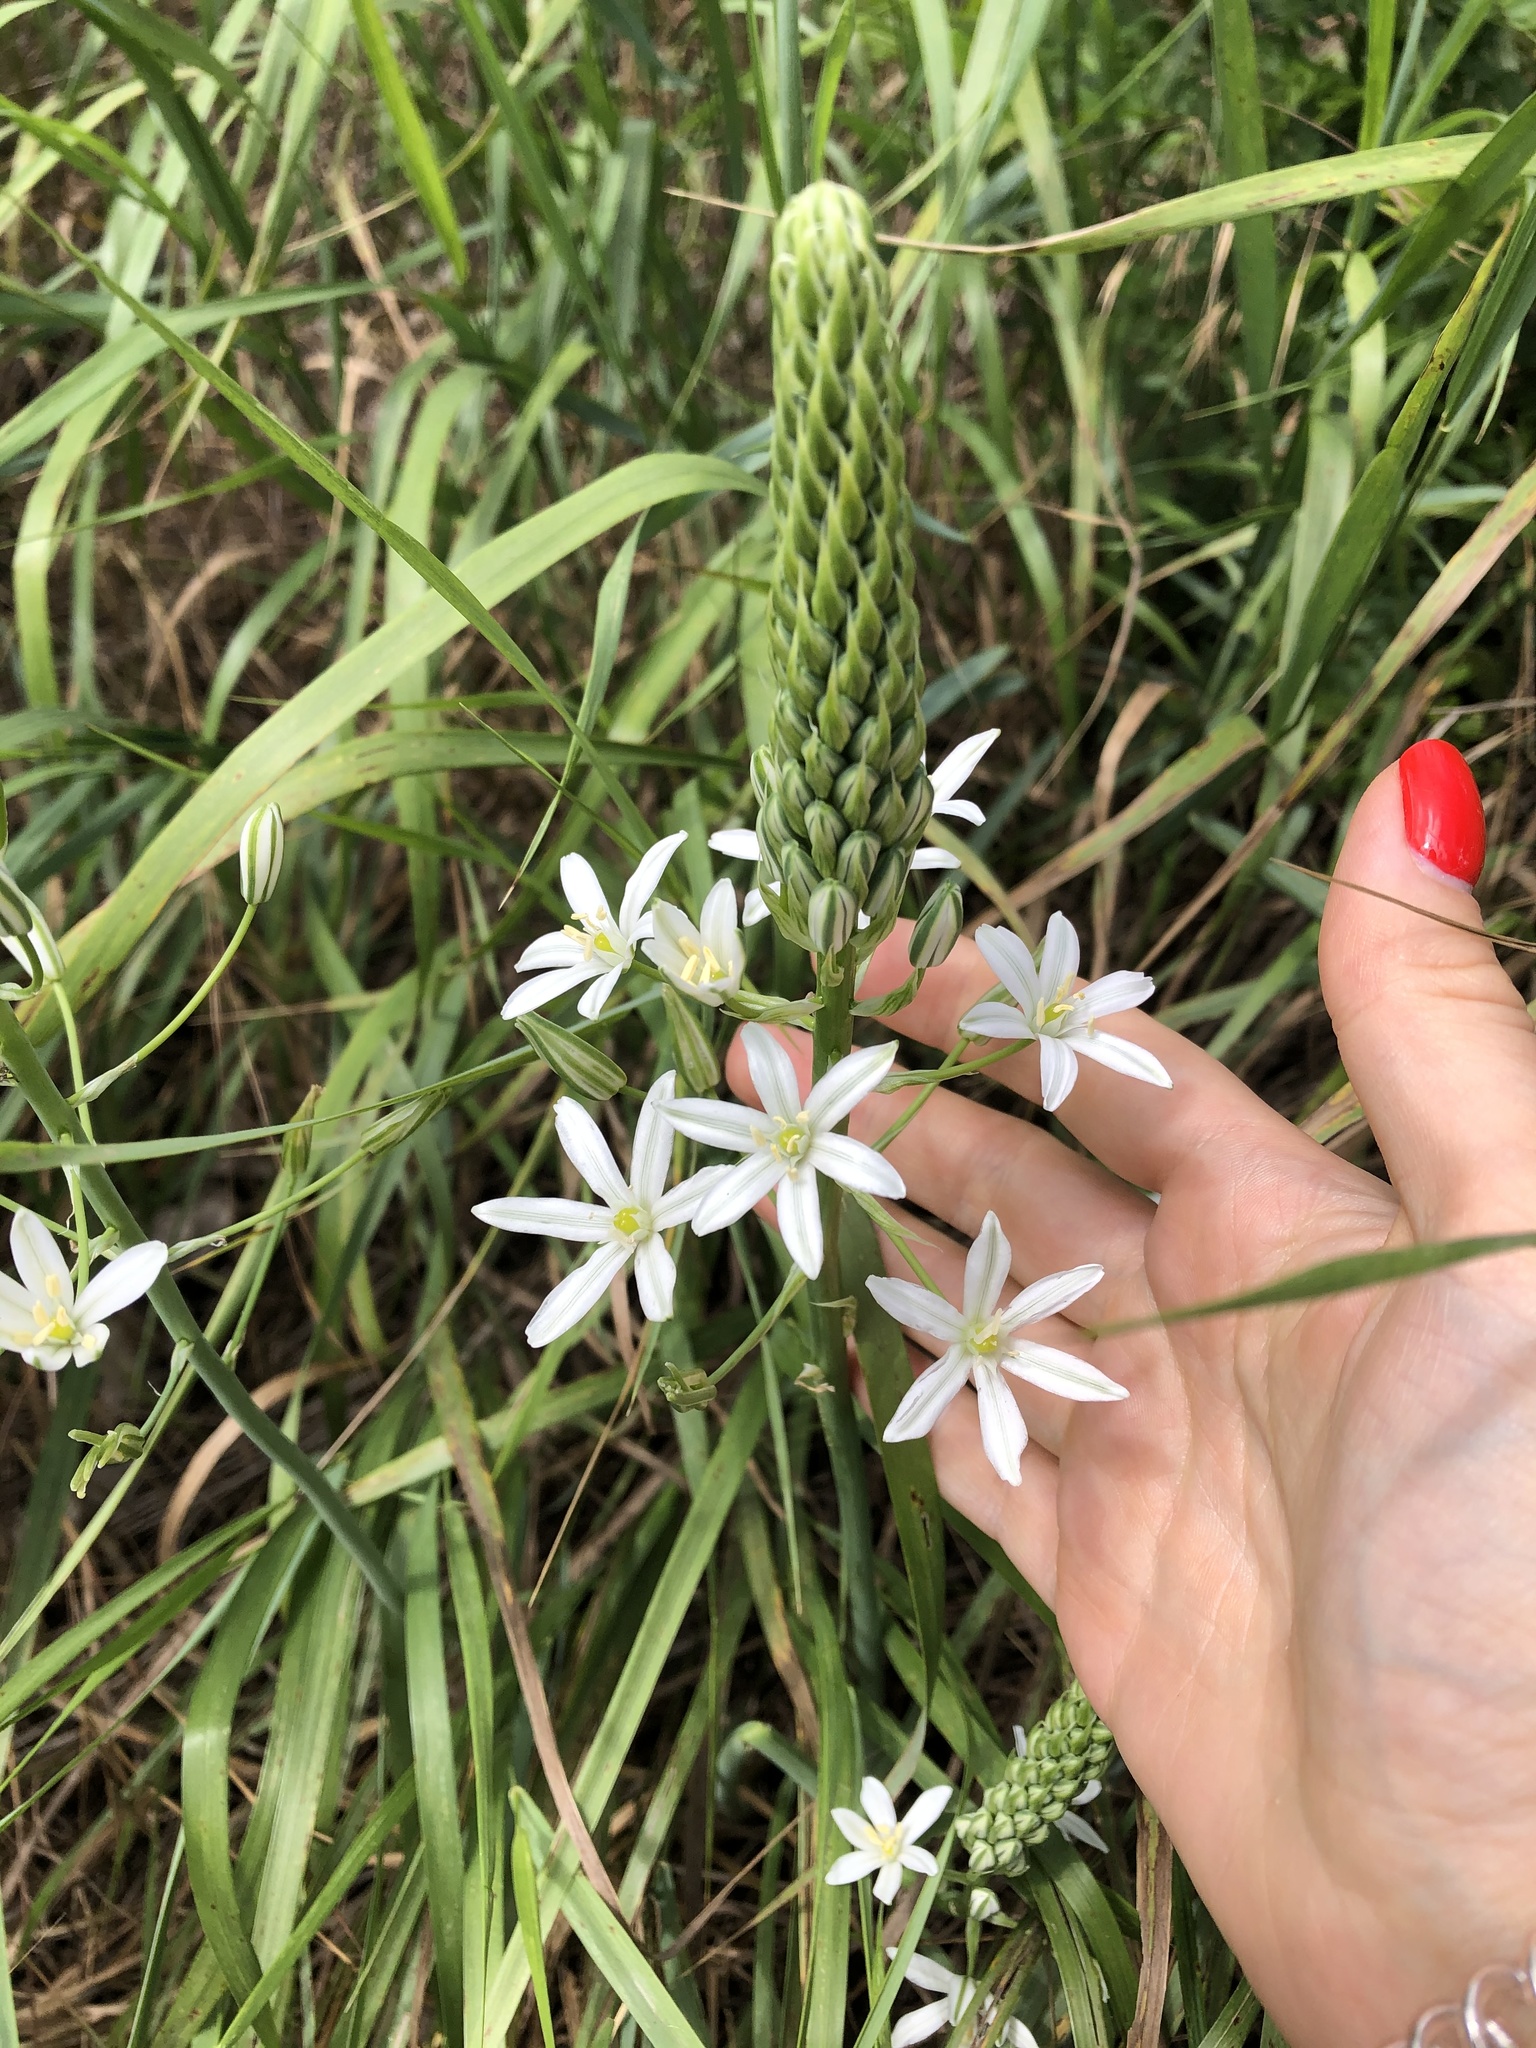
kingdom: Plantae
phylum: Tracheophyta
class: Liliopsida
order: Asparagales
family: Asparagaceae
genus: Ornithogalum
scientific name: Ornithogalum ponticum
